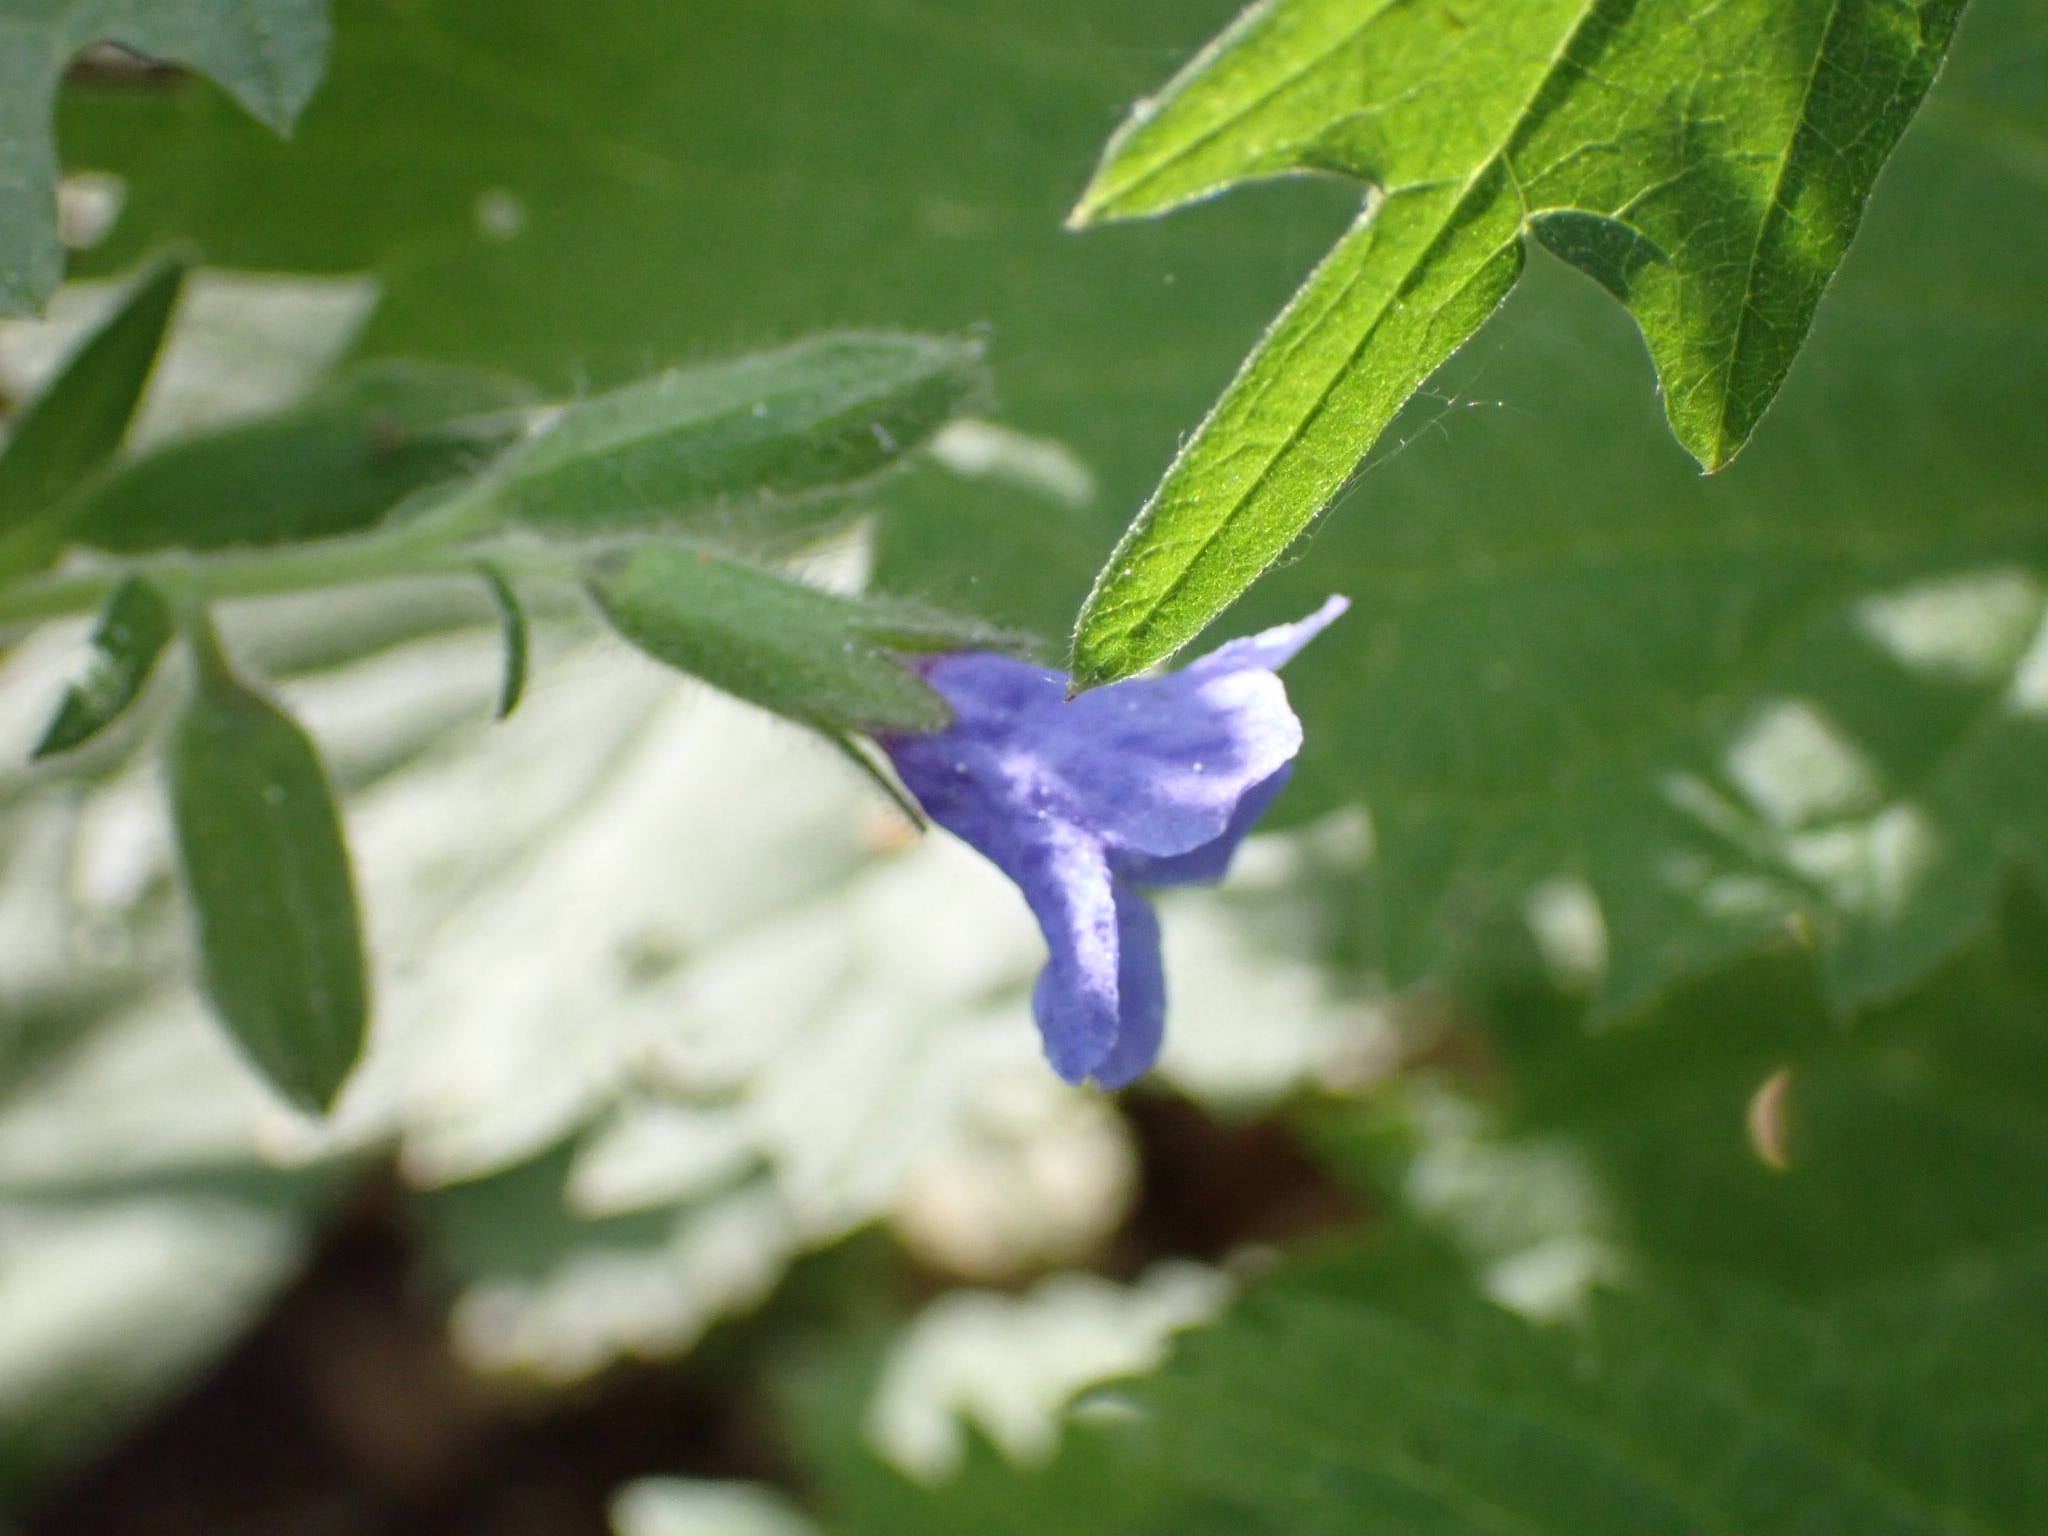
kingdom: Plantae
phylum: Tracheophyta
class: Magnoliopsida
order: Boraginales
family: Boraginaceae
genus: Pulmonaria
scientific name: Pulmonaria mollis
